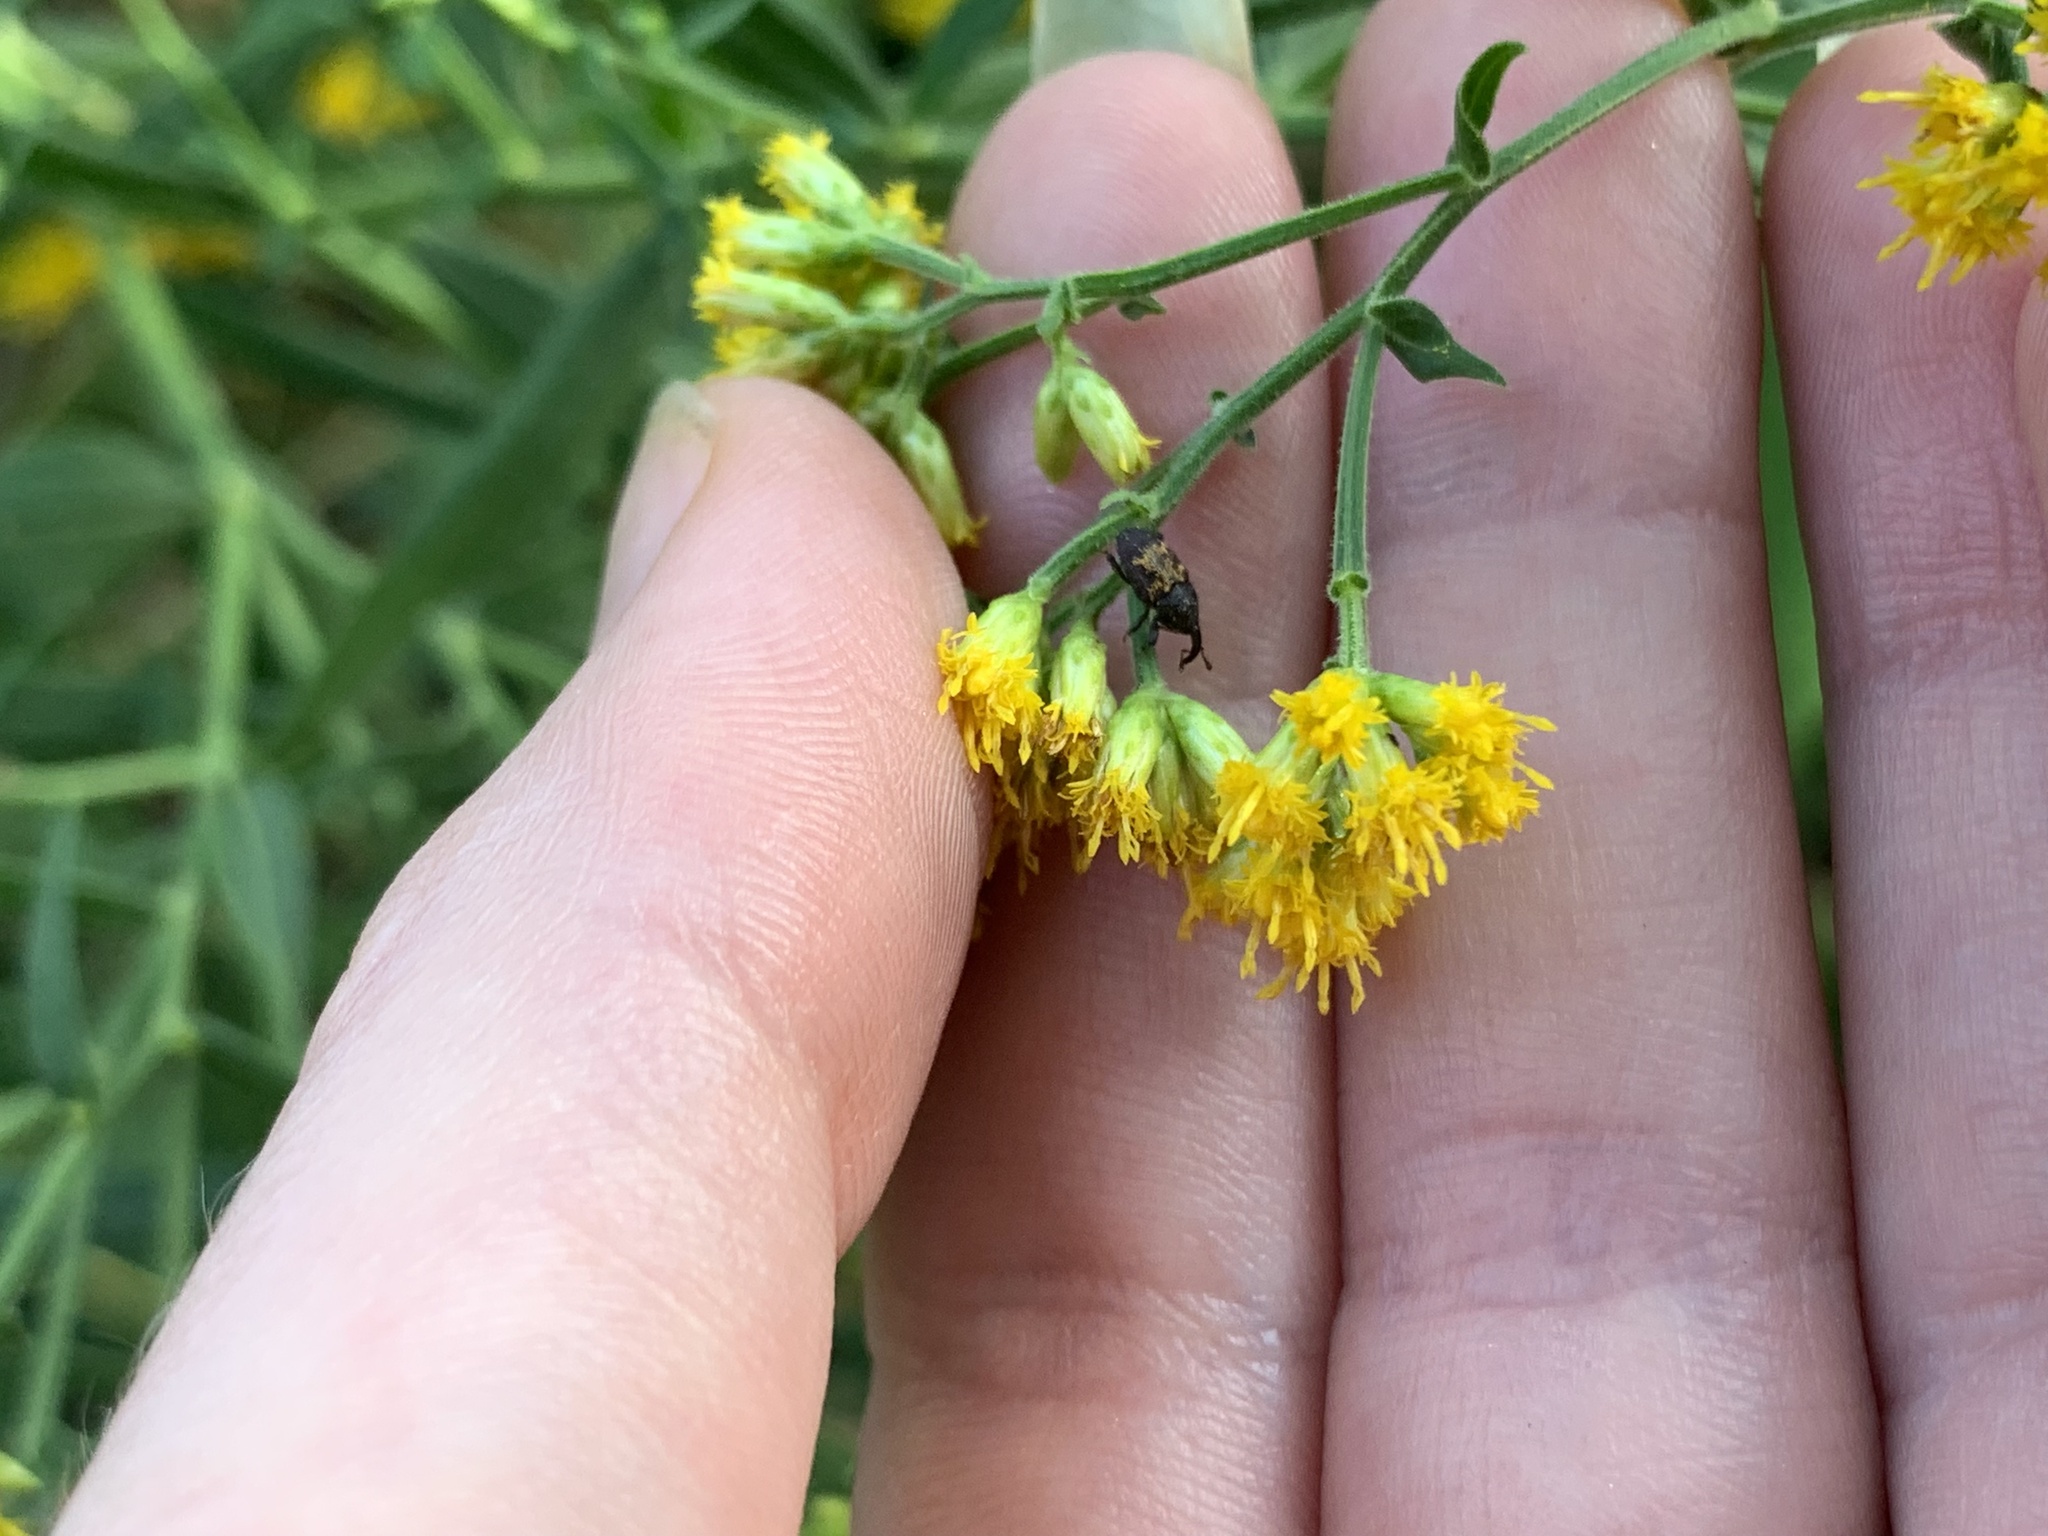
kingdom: Animalia
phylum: Arthropoda
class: Insecta
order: Coleoptera
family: Curculionidae
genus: Glyptobaris
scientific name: Glyptobaris lecontei
